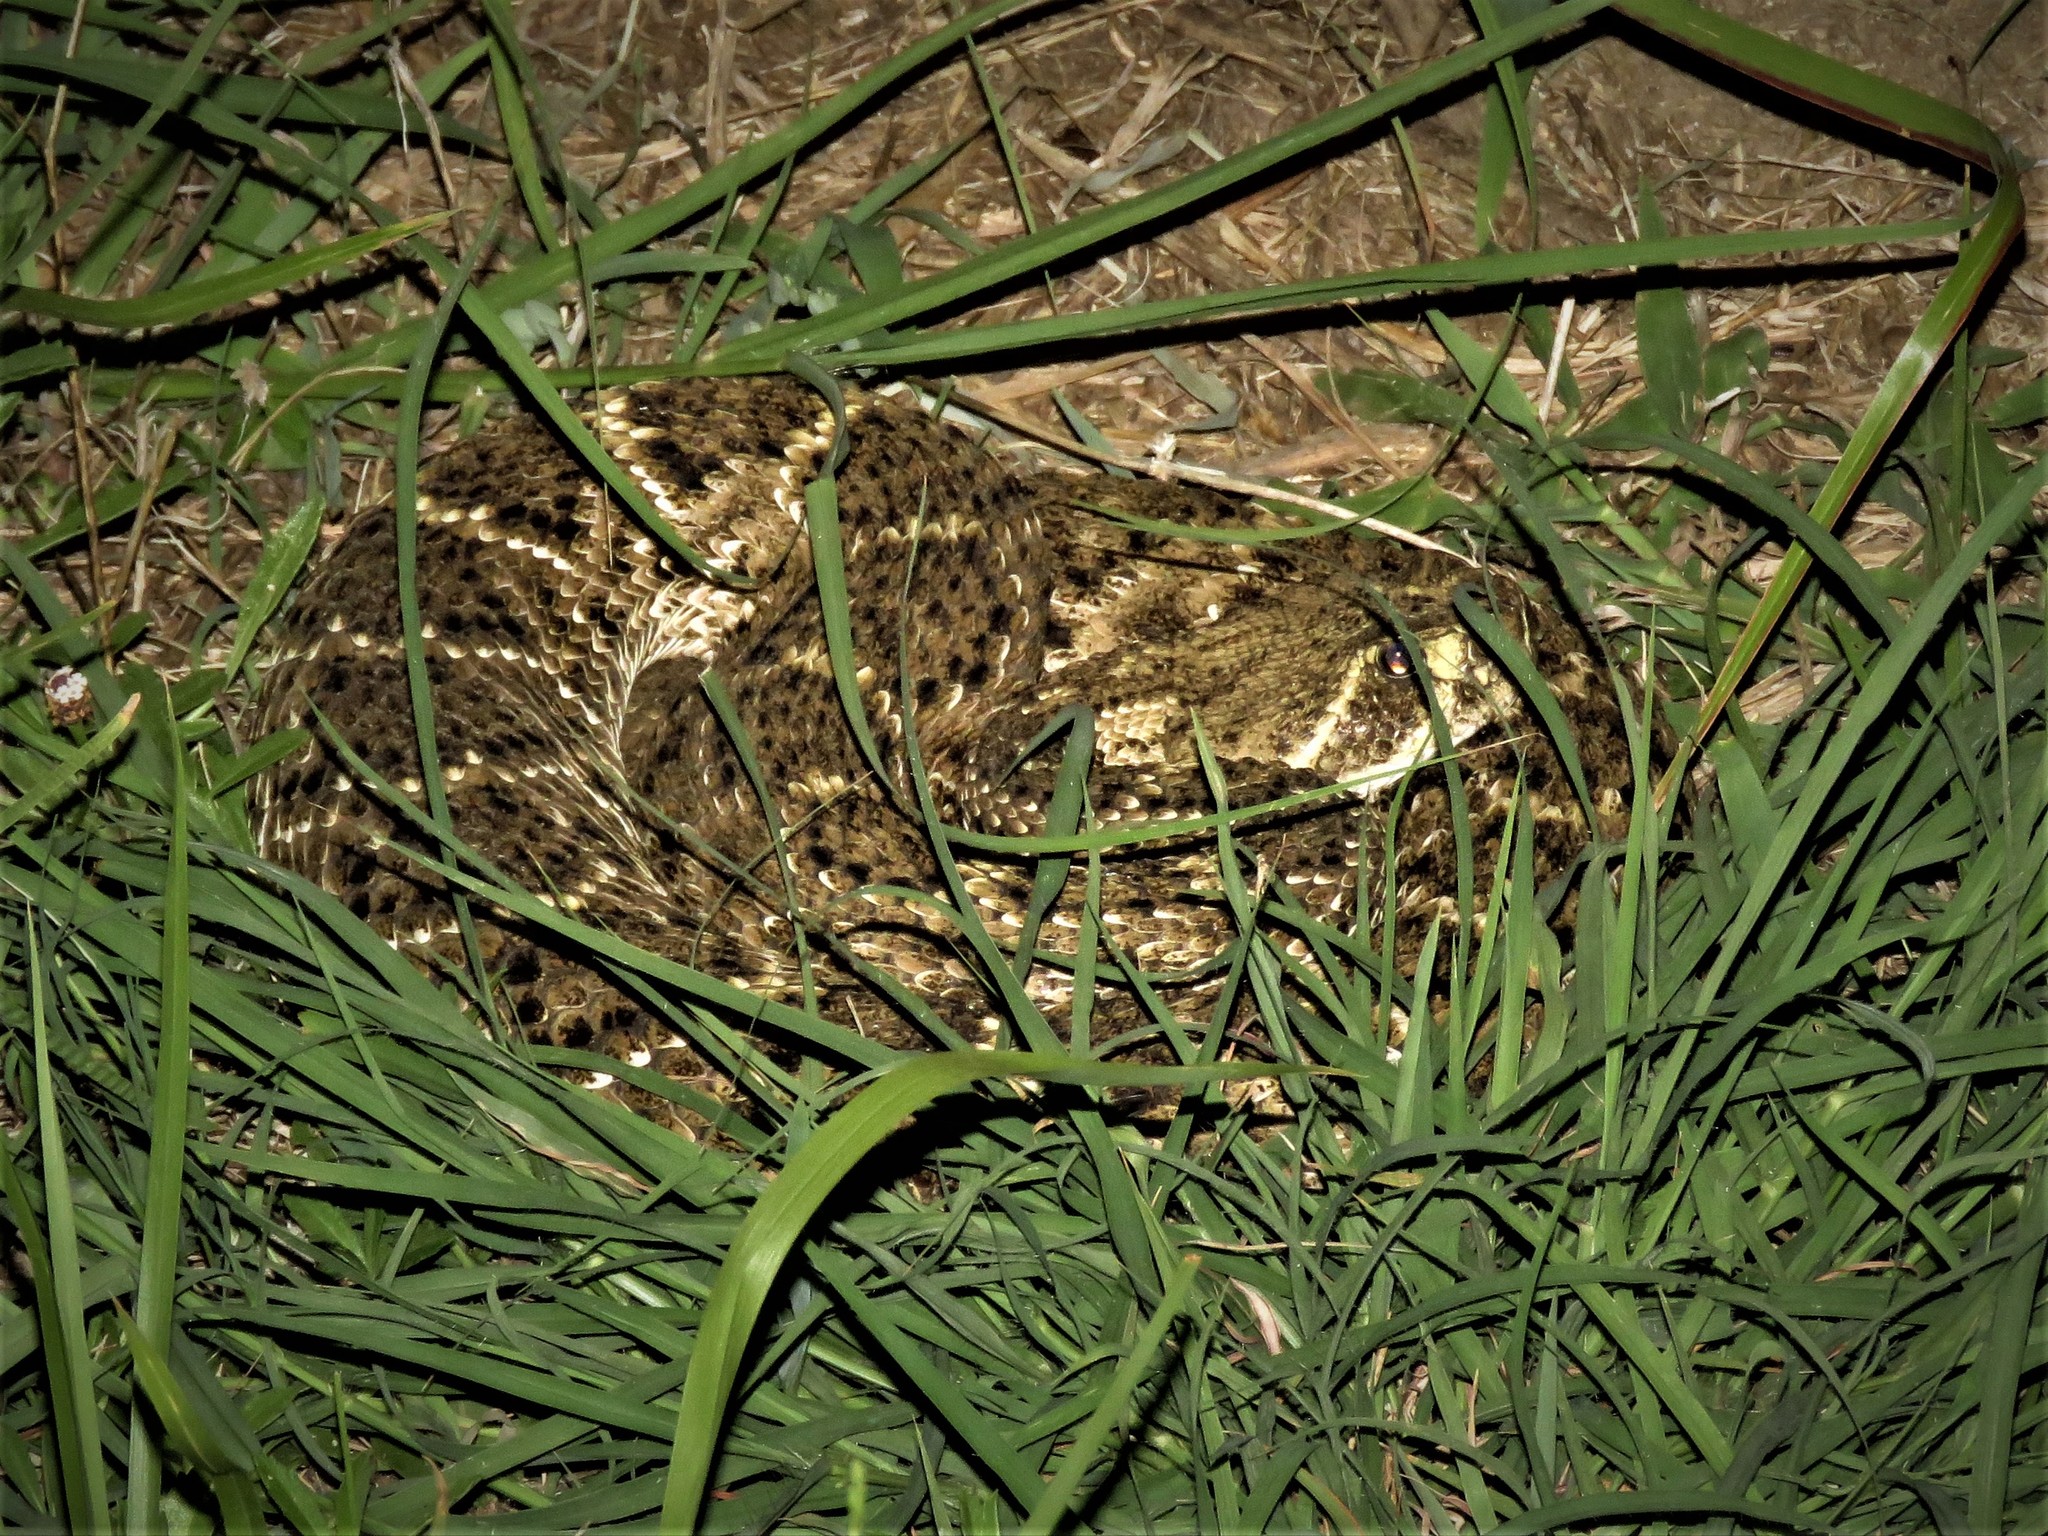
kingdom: Animalia
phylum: Chordata
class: Squamata
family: Viperidae
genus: Crotalus
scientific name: Crotalus atrox
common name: Western diamond-backed rattlesnake
